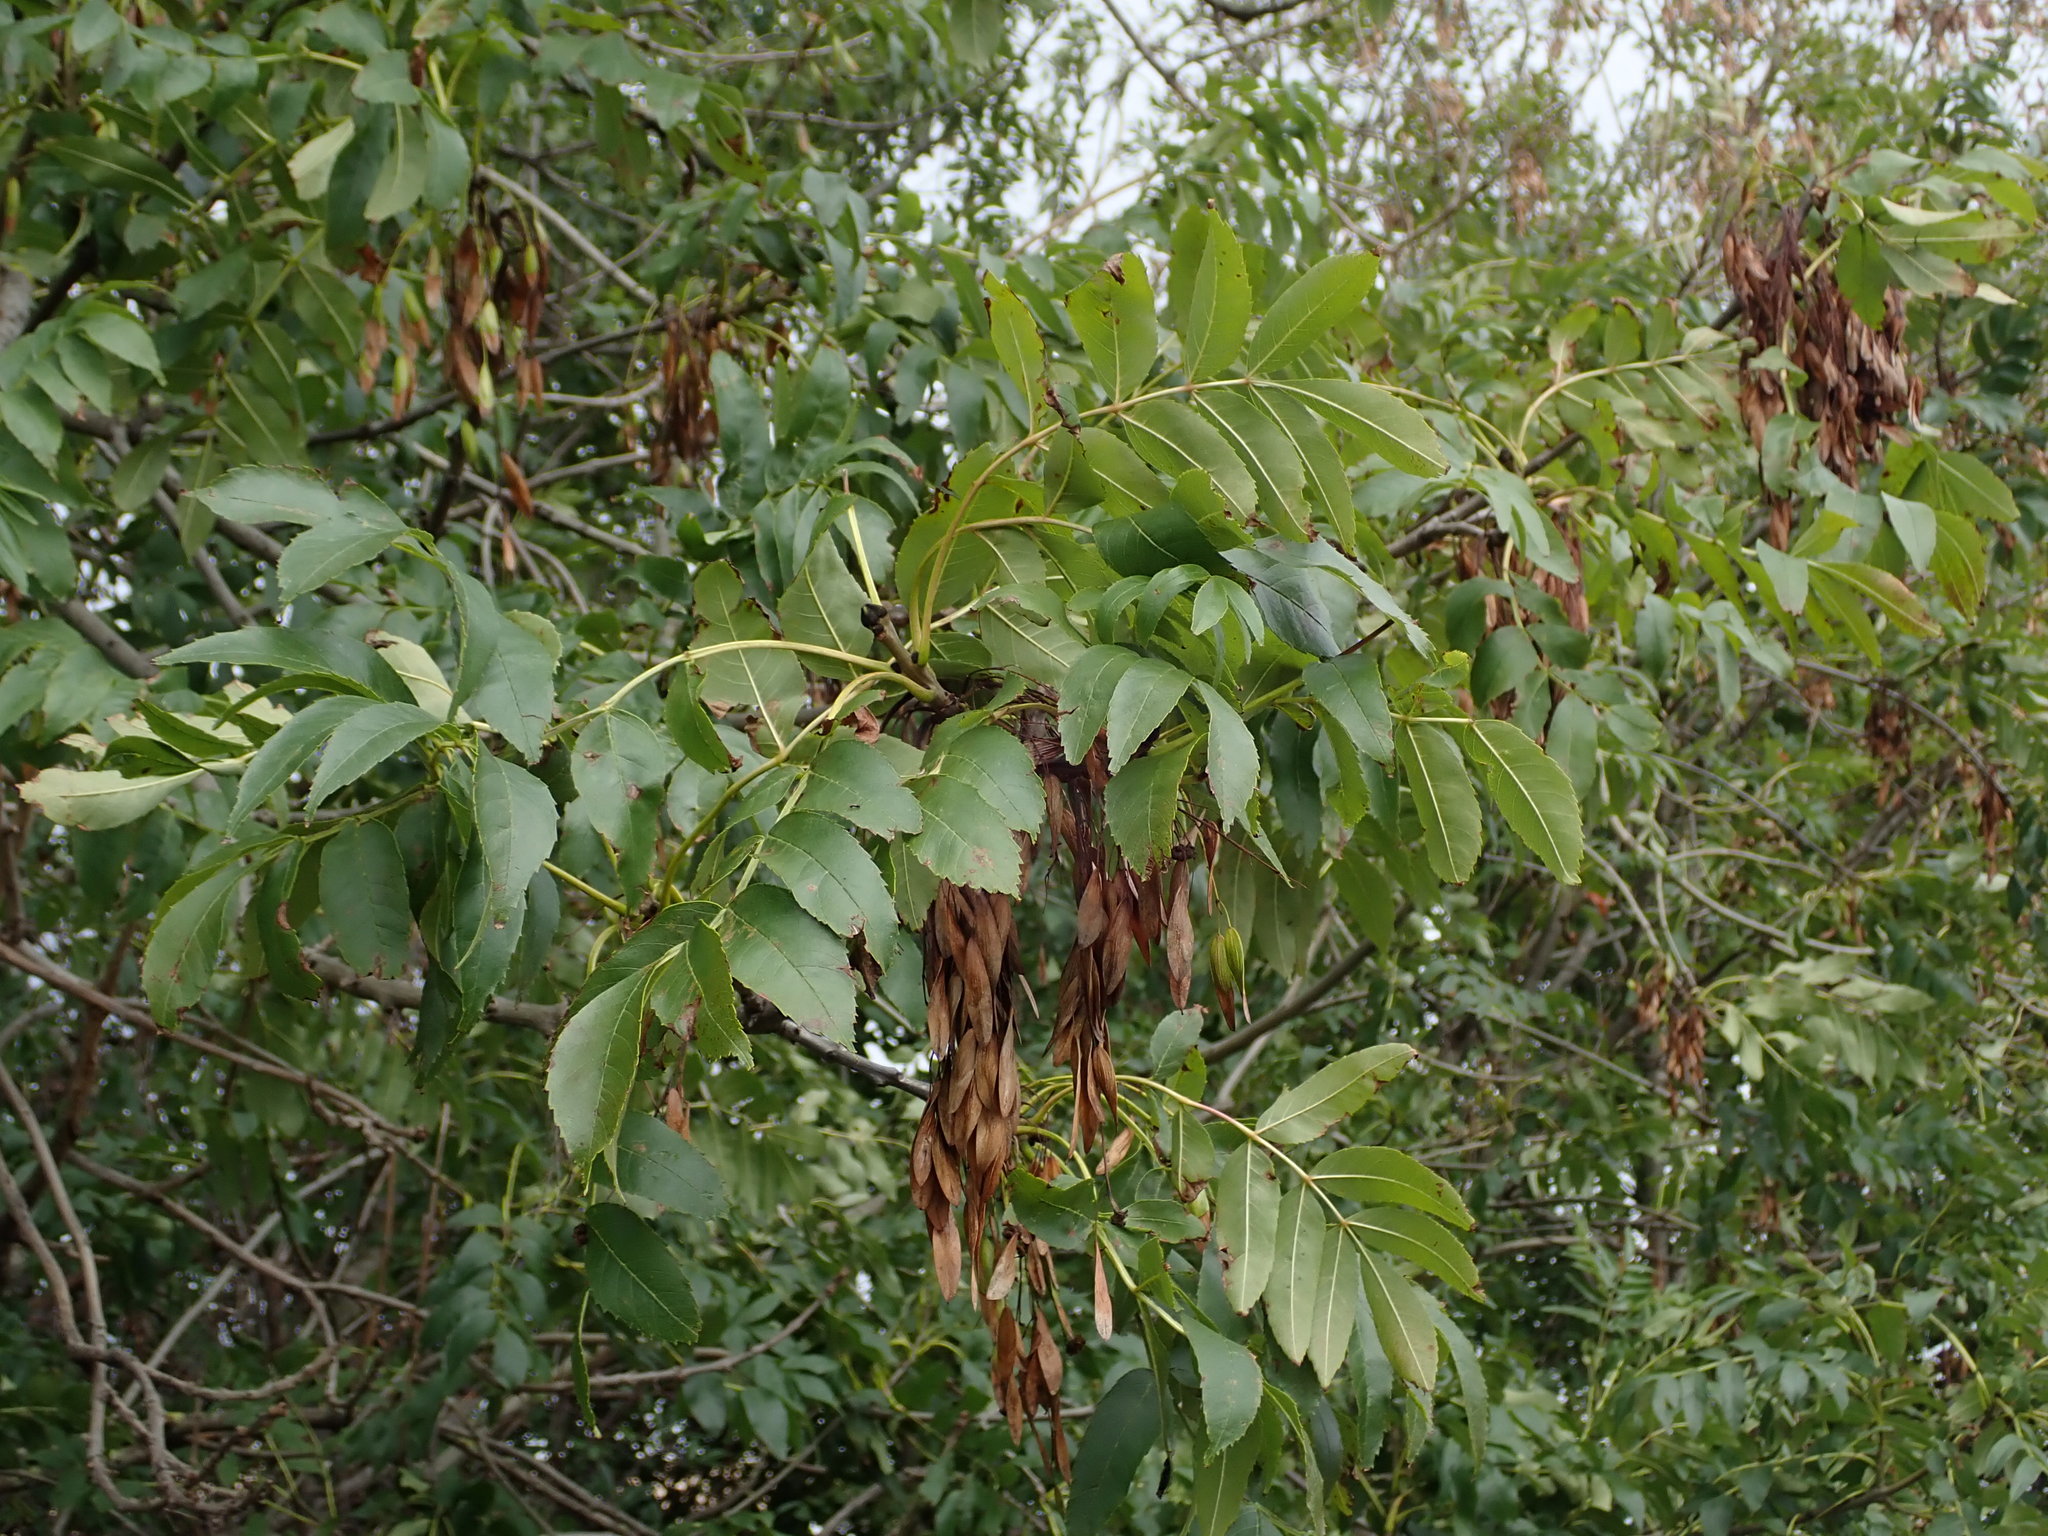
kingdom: Plantae
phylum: Tracheophyta
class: Magnoliopsida
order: Lamiales
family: Oleaceae
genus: Fraxinus
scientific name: Fraxinus excelsior
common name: European ash
